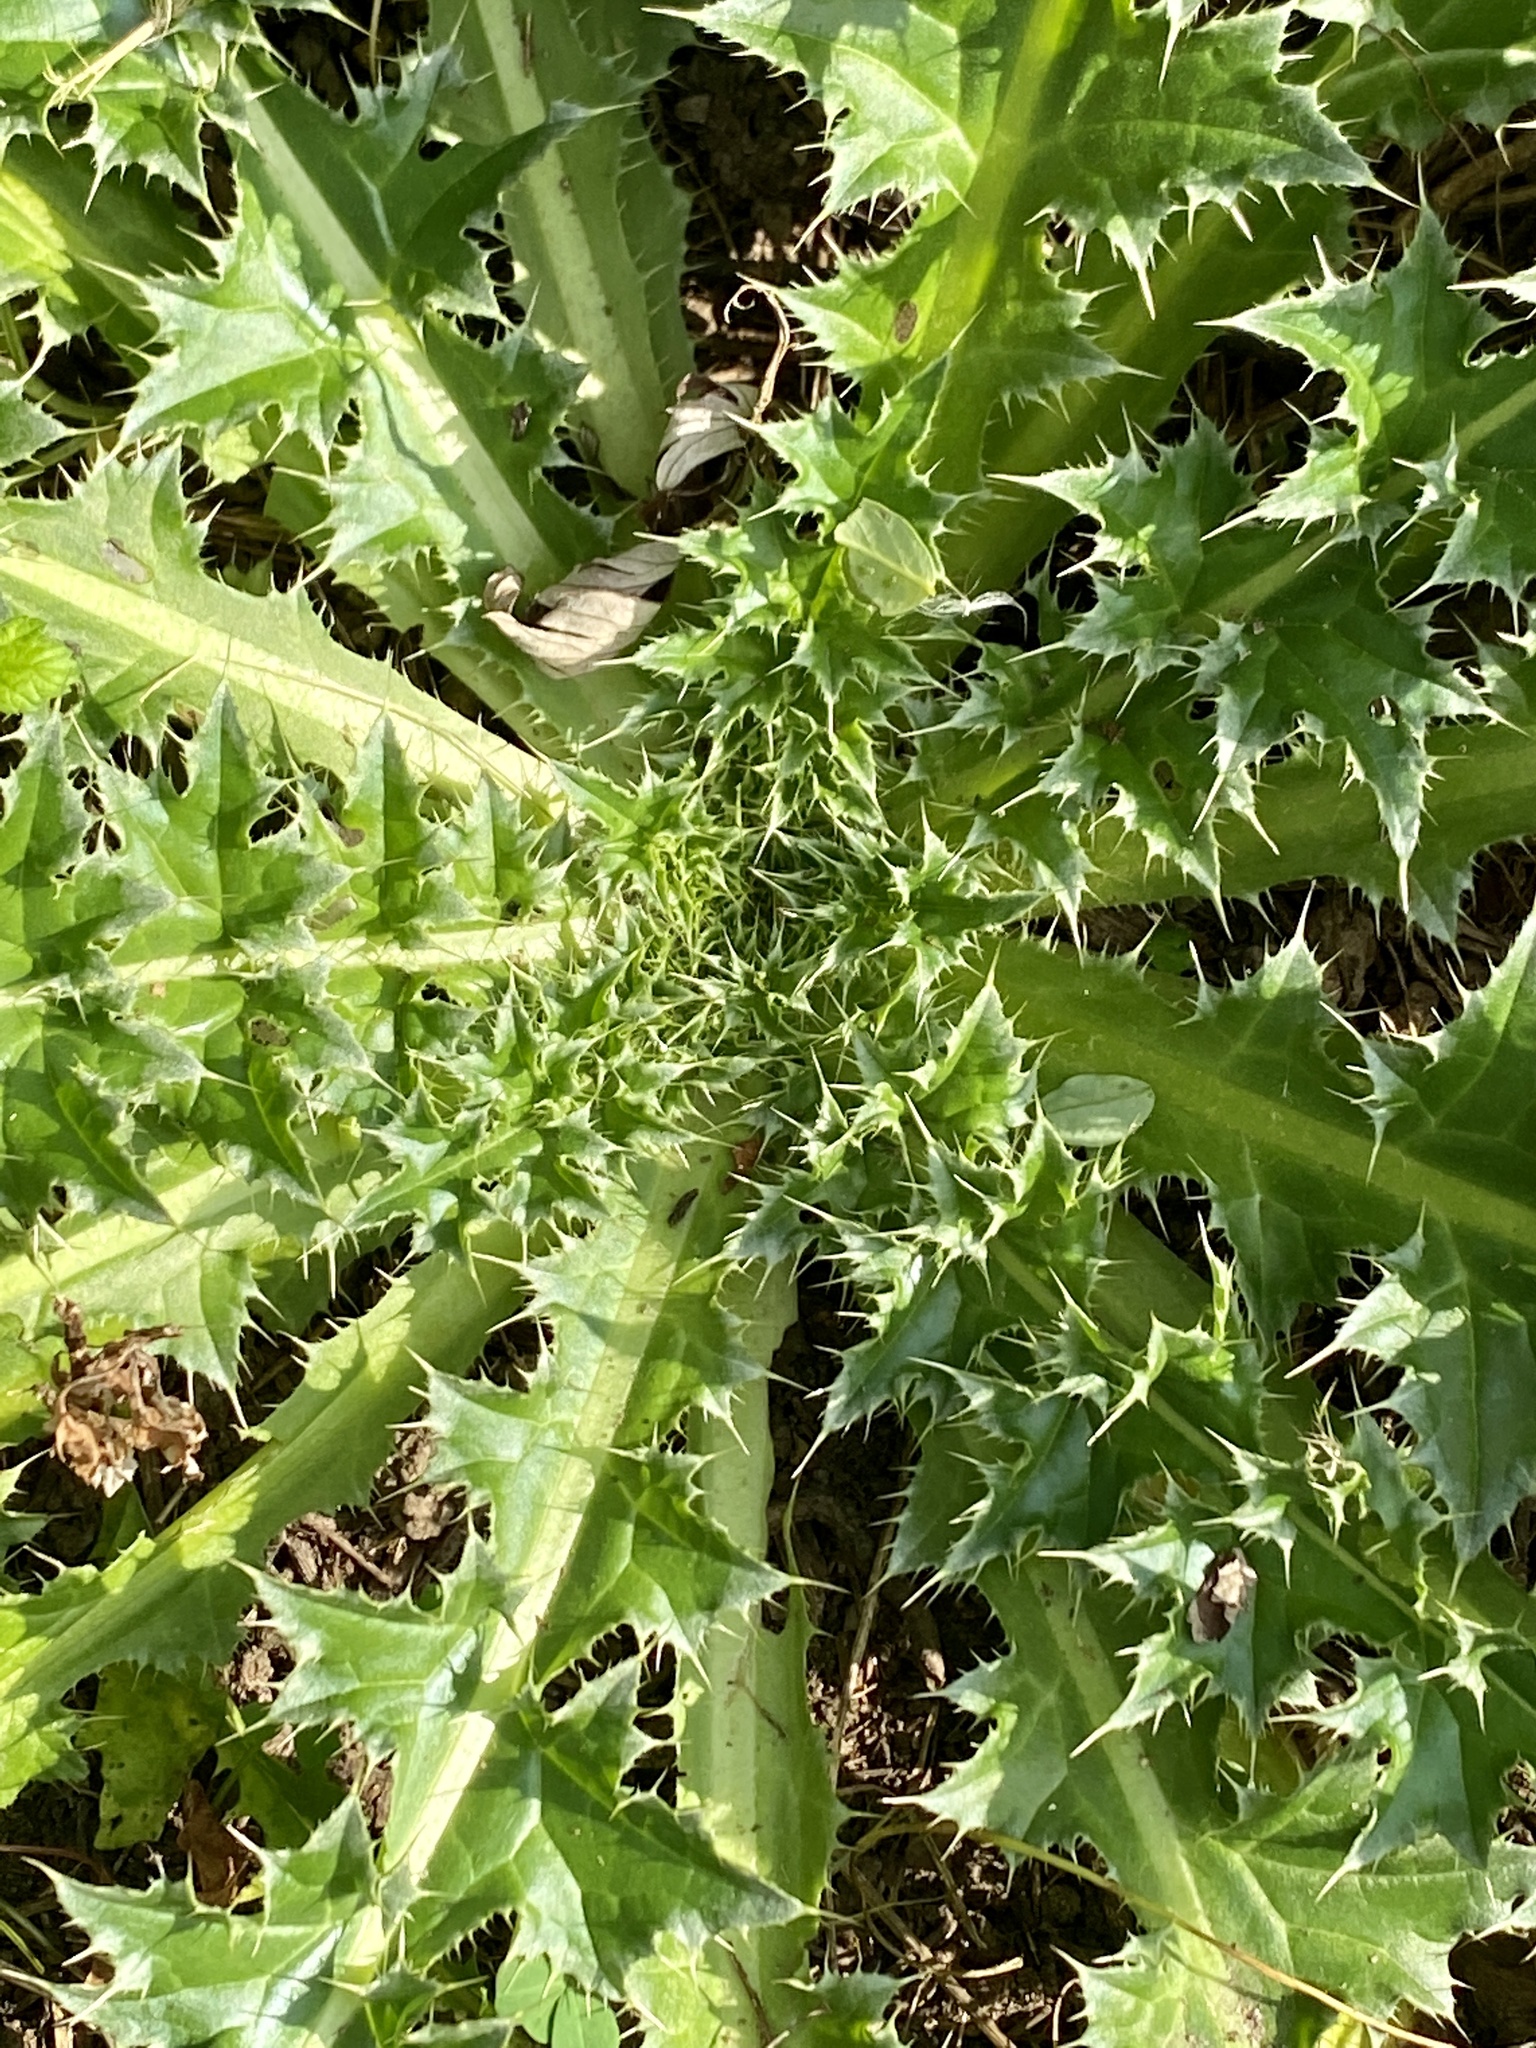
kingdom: Plantae
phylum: Tracheophyta
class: Magnoliopsida
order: Asterales
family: Asteraceae
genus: Carduus
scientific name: Carduus nutans
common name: Musk thistle
